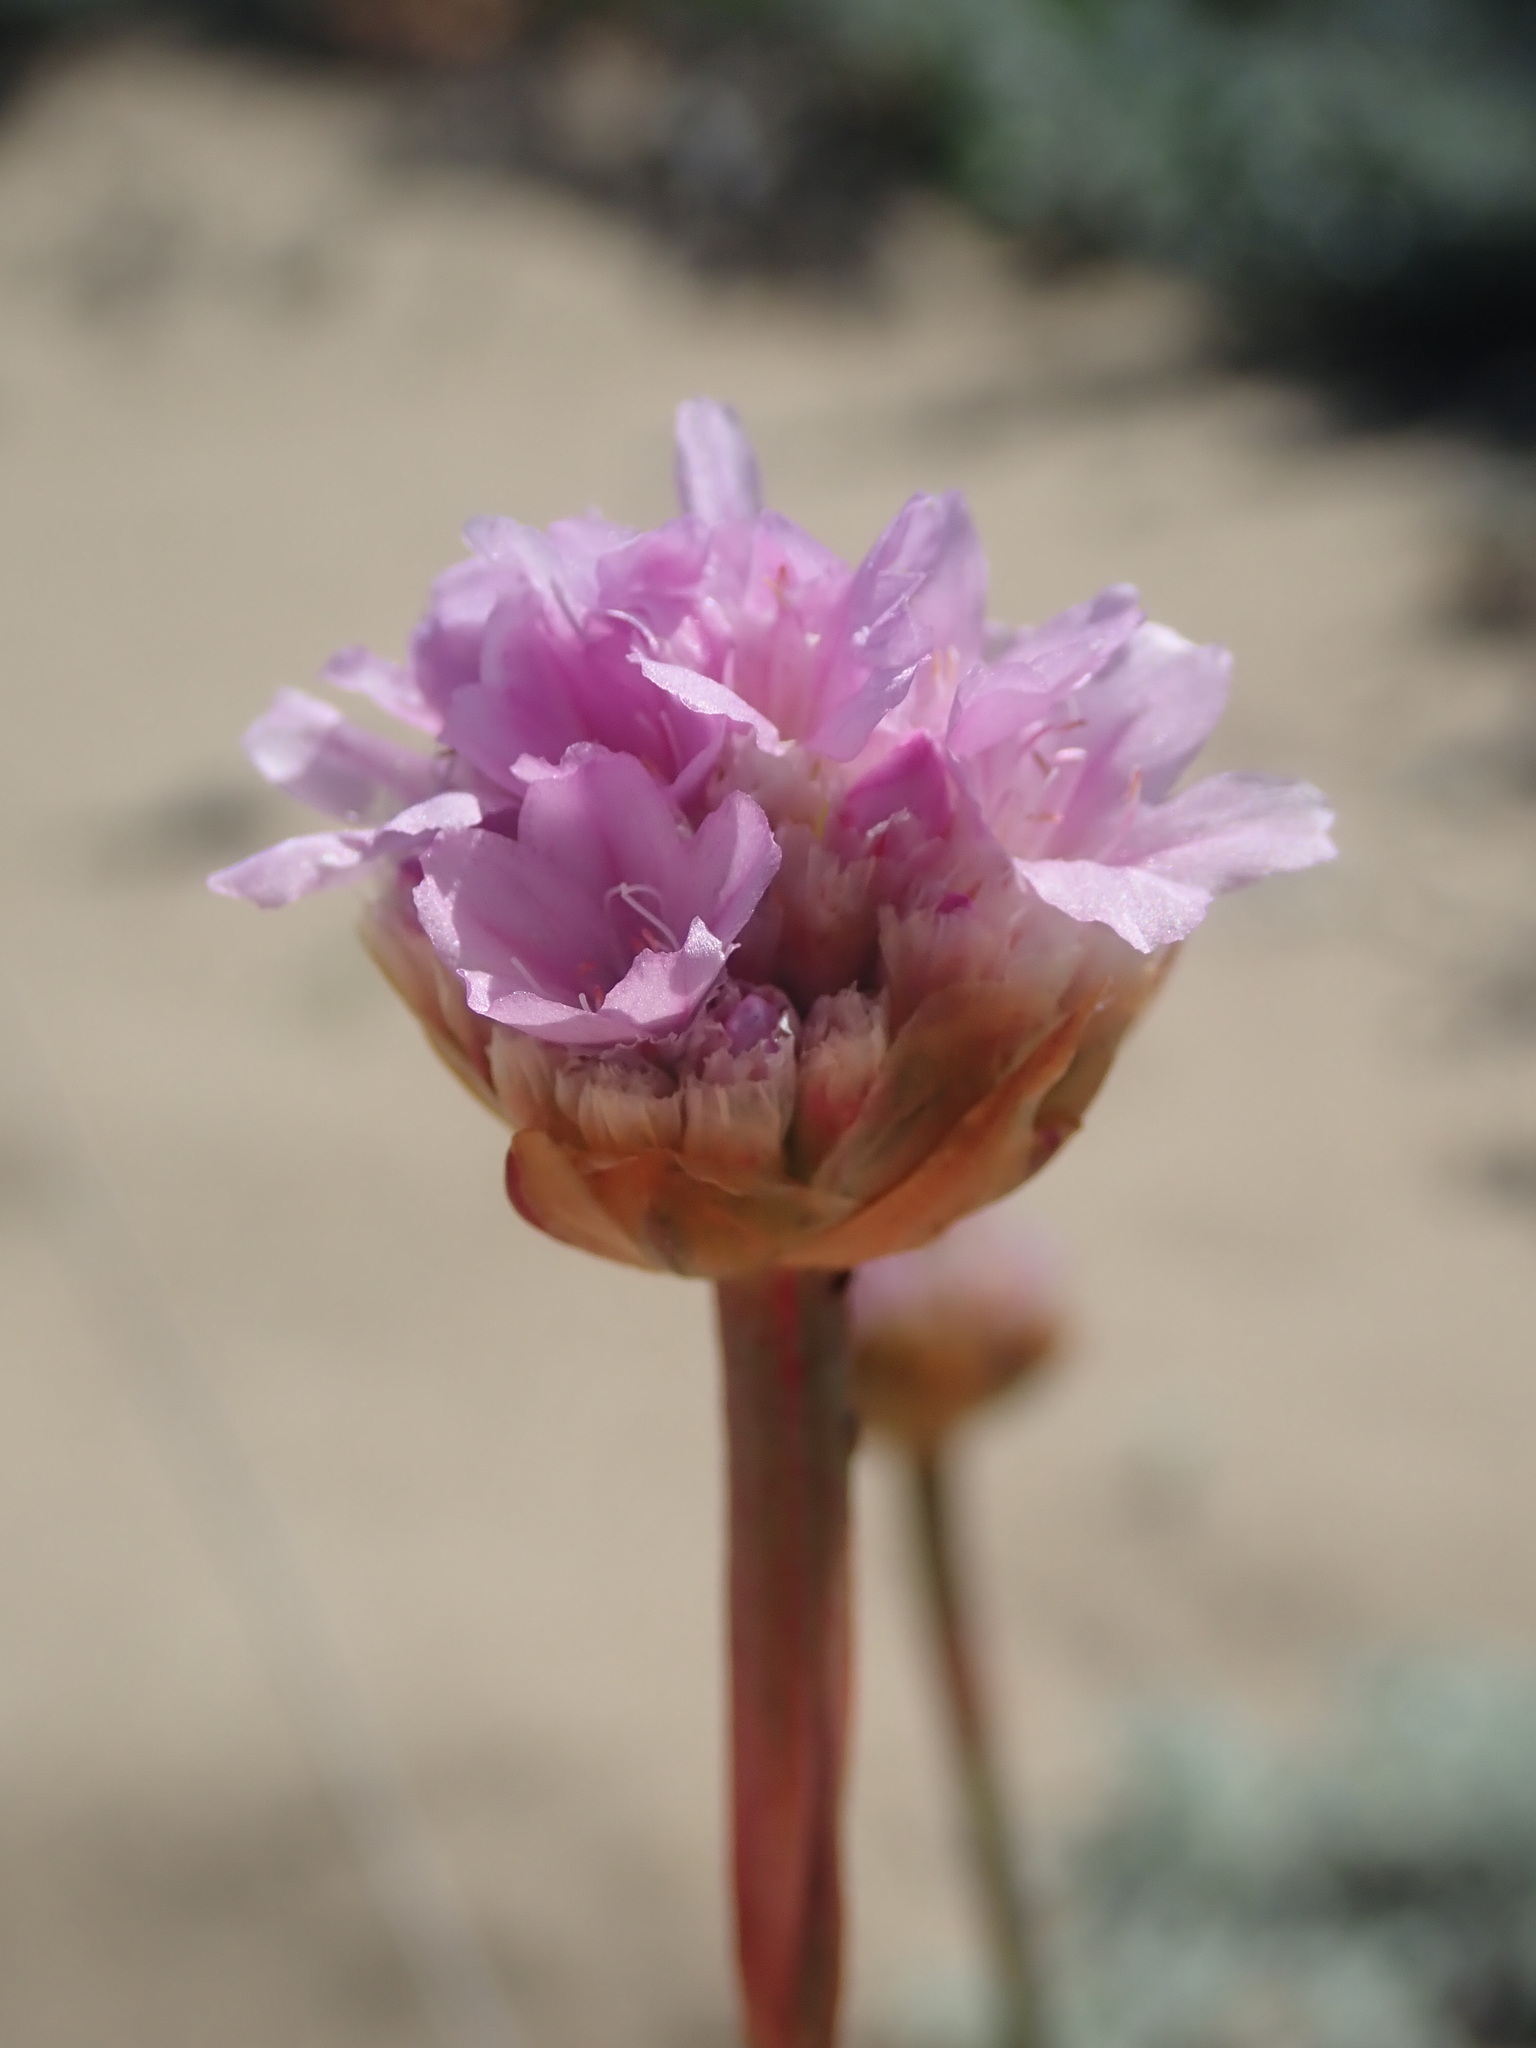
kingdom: Plantae
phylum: Tracheophyta
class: Magnoliopsida
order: Caryophyllales
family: Plumbaginaceae
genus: Armeria
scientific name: Armeria maritima
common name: Thrift
